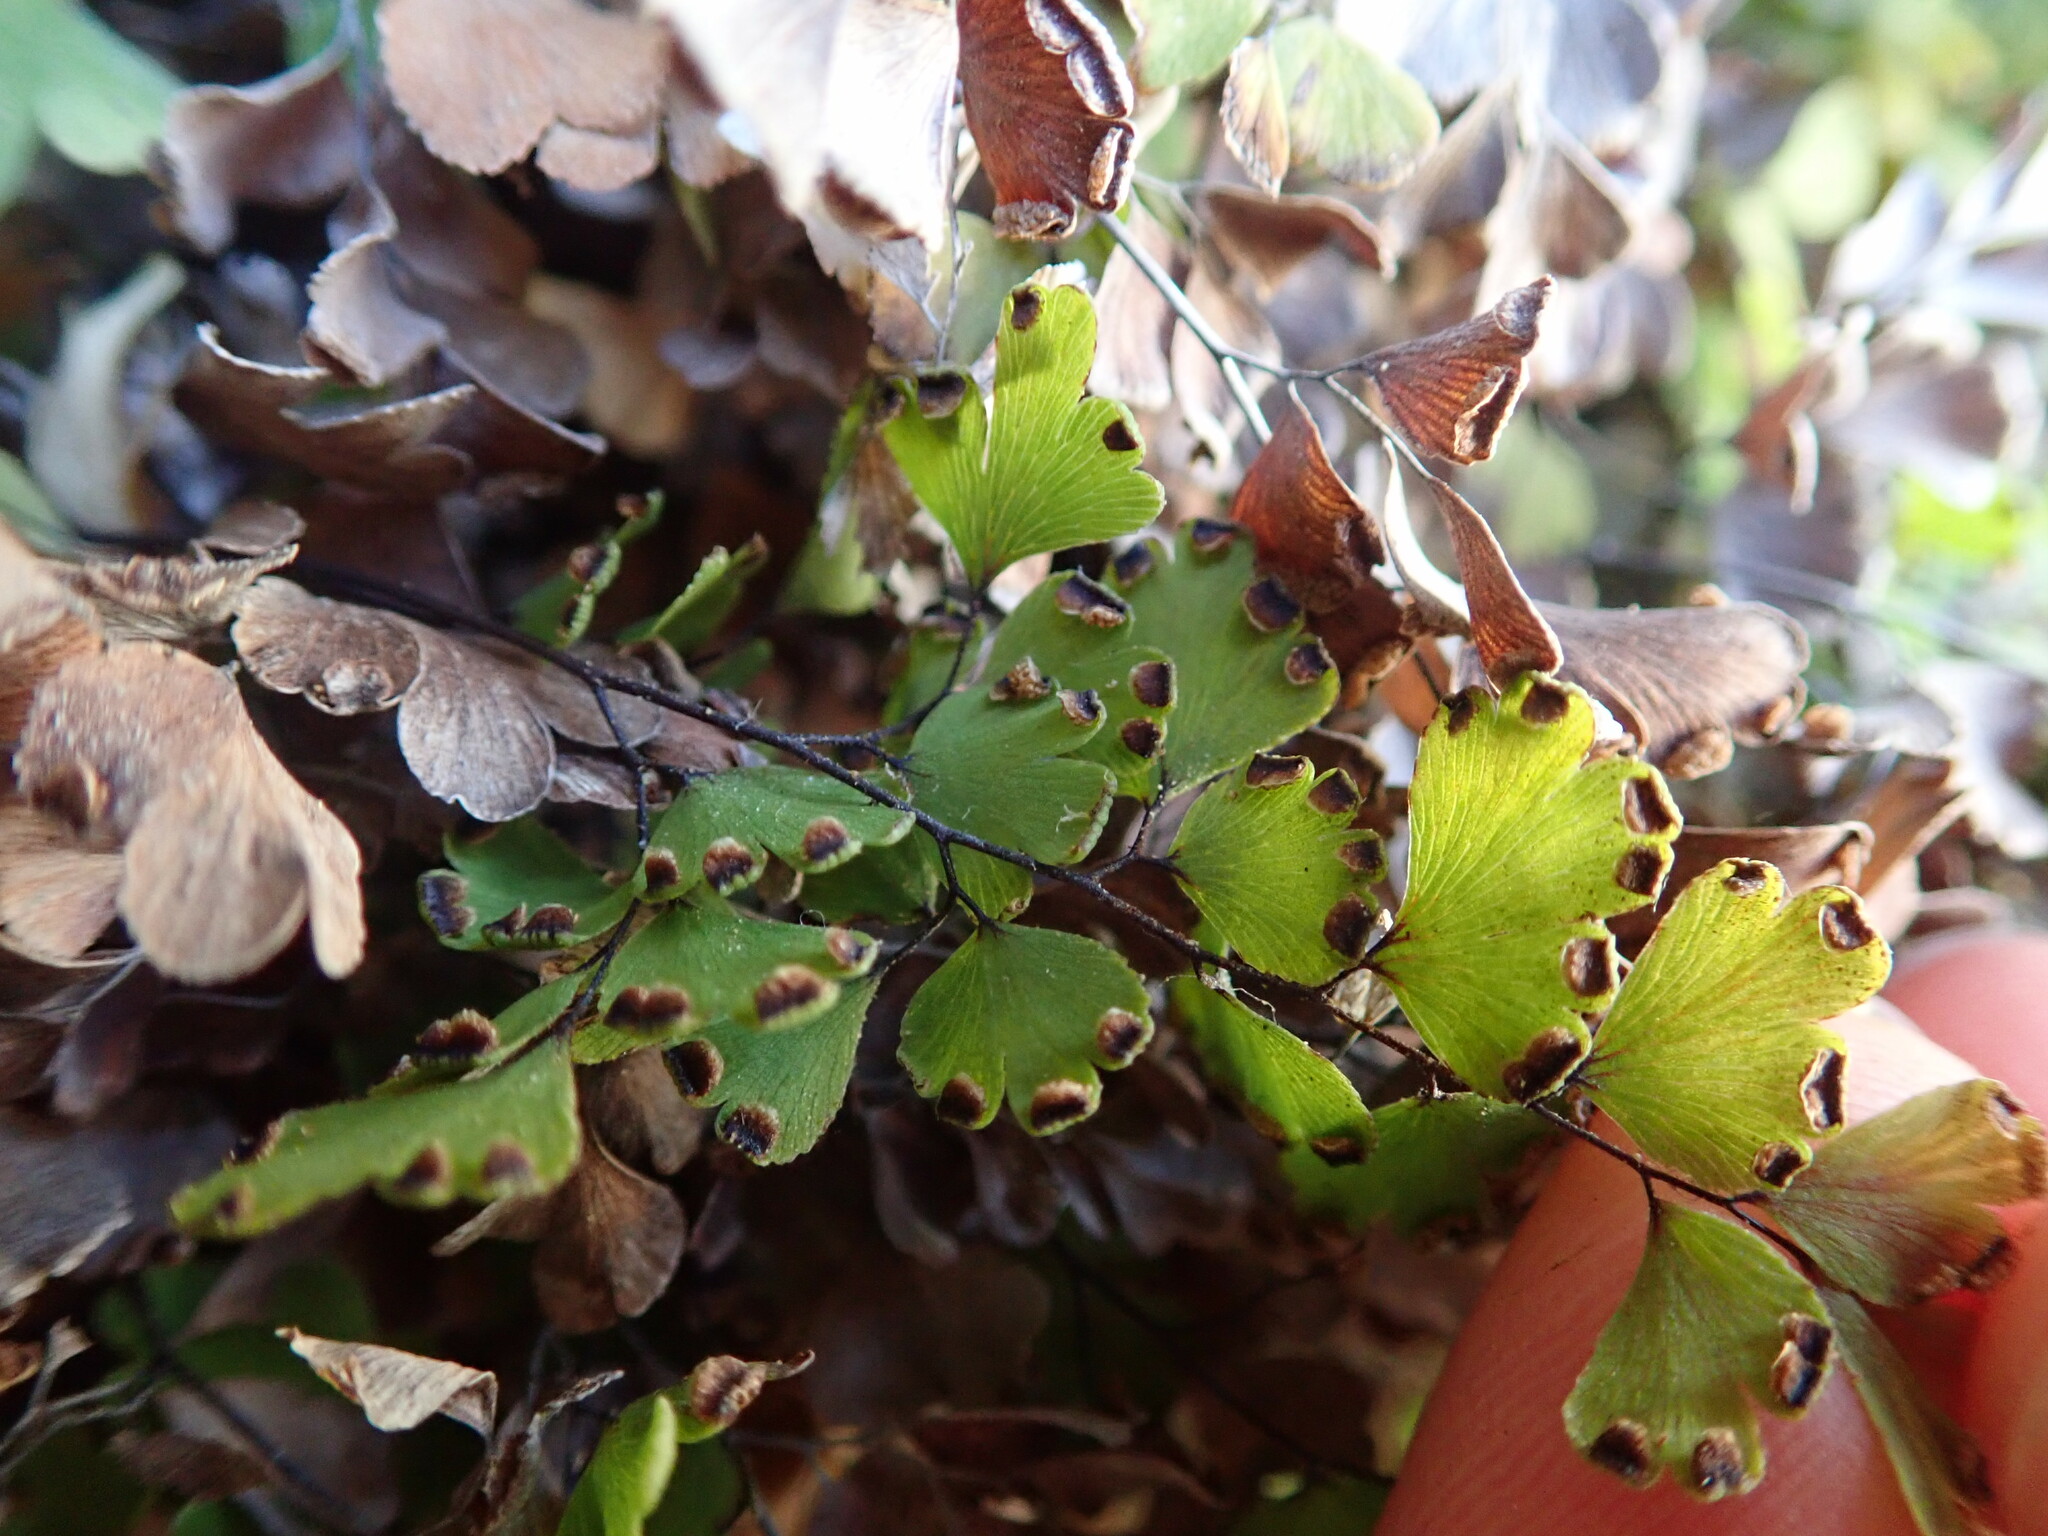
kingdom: Plantae
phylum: Tracheophyta
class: Polypodiopsida
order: Polypodiales
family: Pteridaceae
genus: Adiantum
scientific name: Adiantum capillus-veneris
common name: Maidenhair fern
